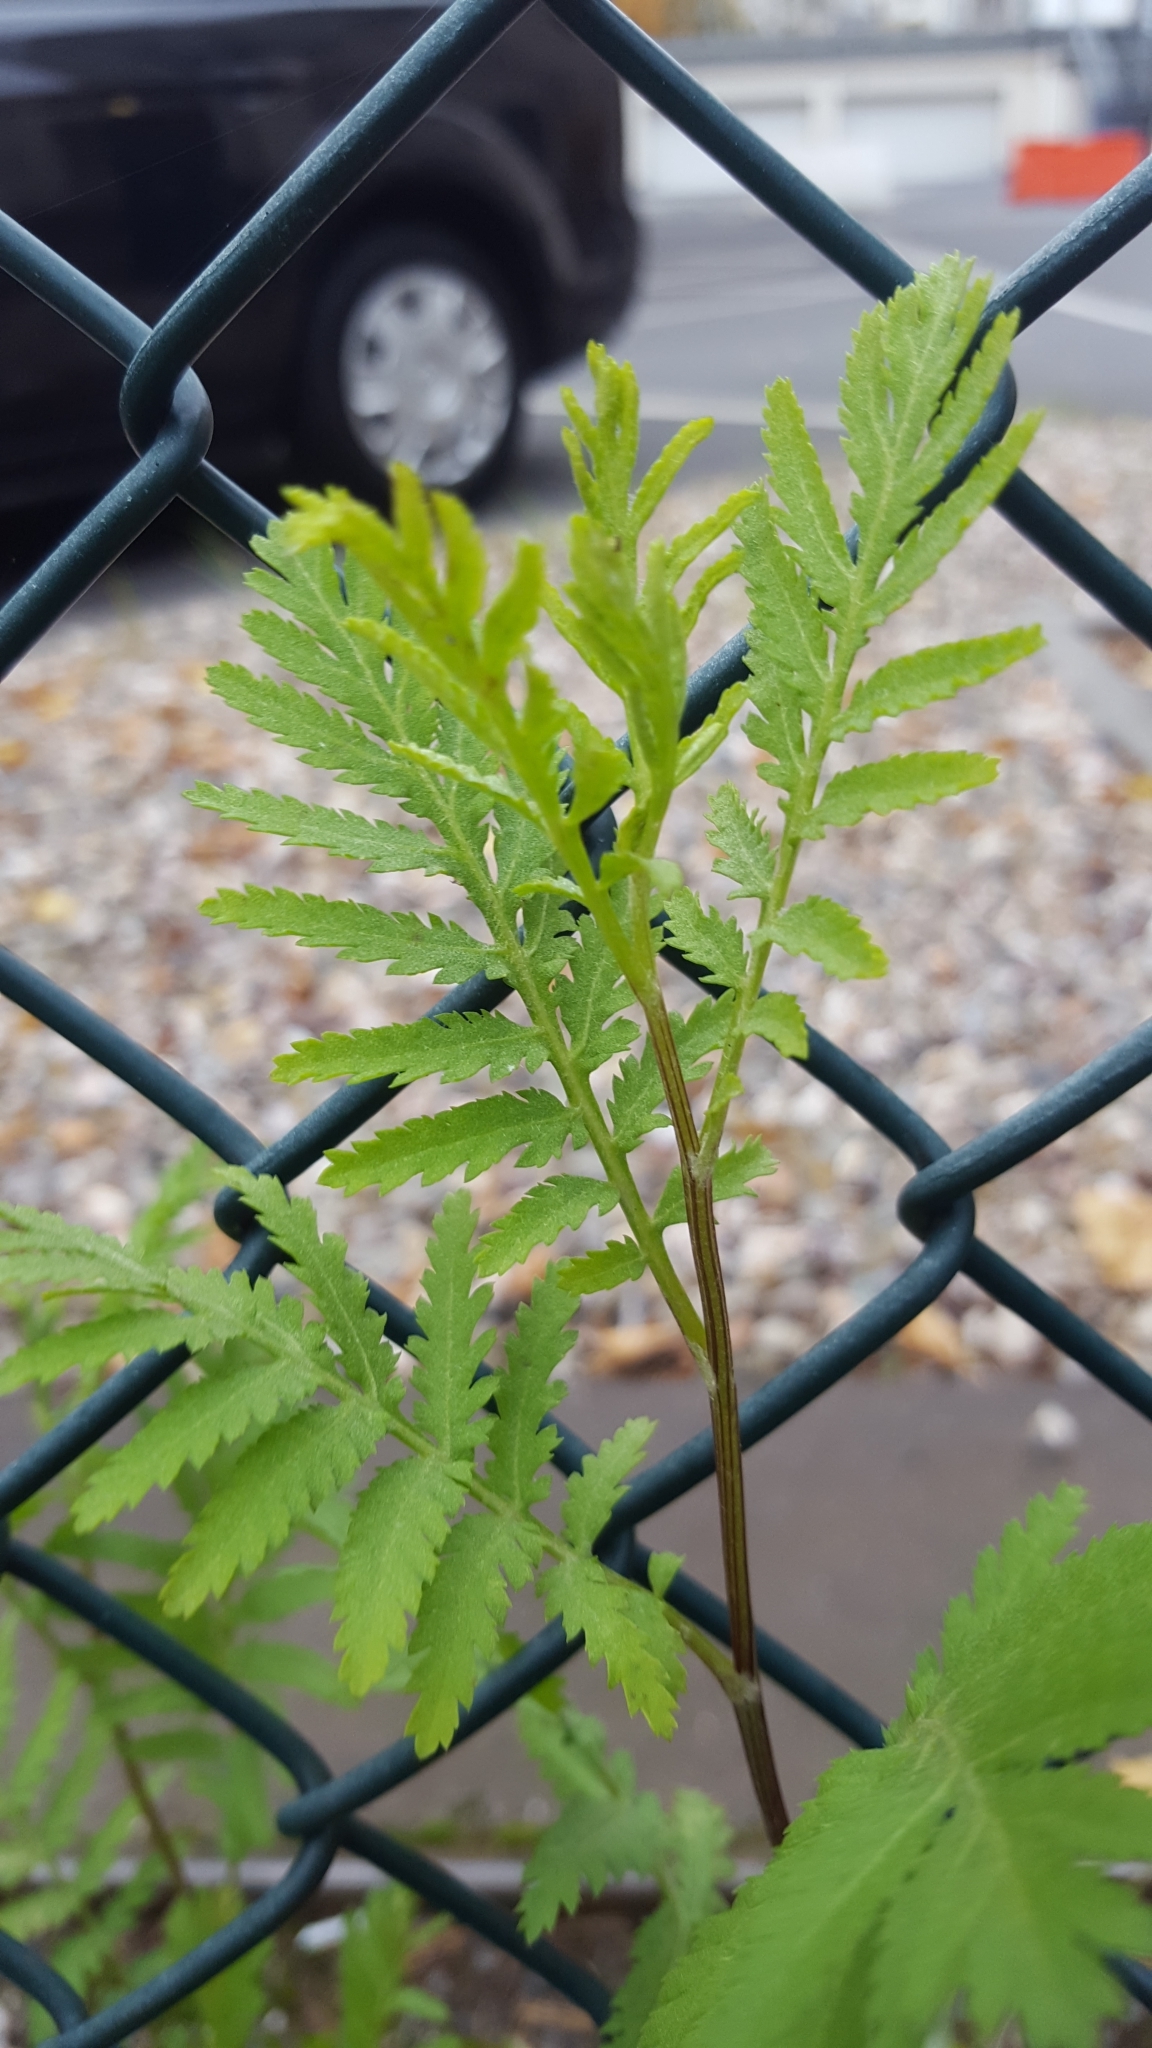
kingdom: Plantae
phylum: Tracheophyta
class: Magnoliopsida
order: Asterales
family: Asteraceae
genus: Tanacetum
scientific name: Tanacetum vulgare
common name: Common tansy
